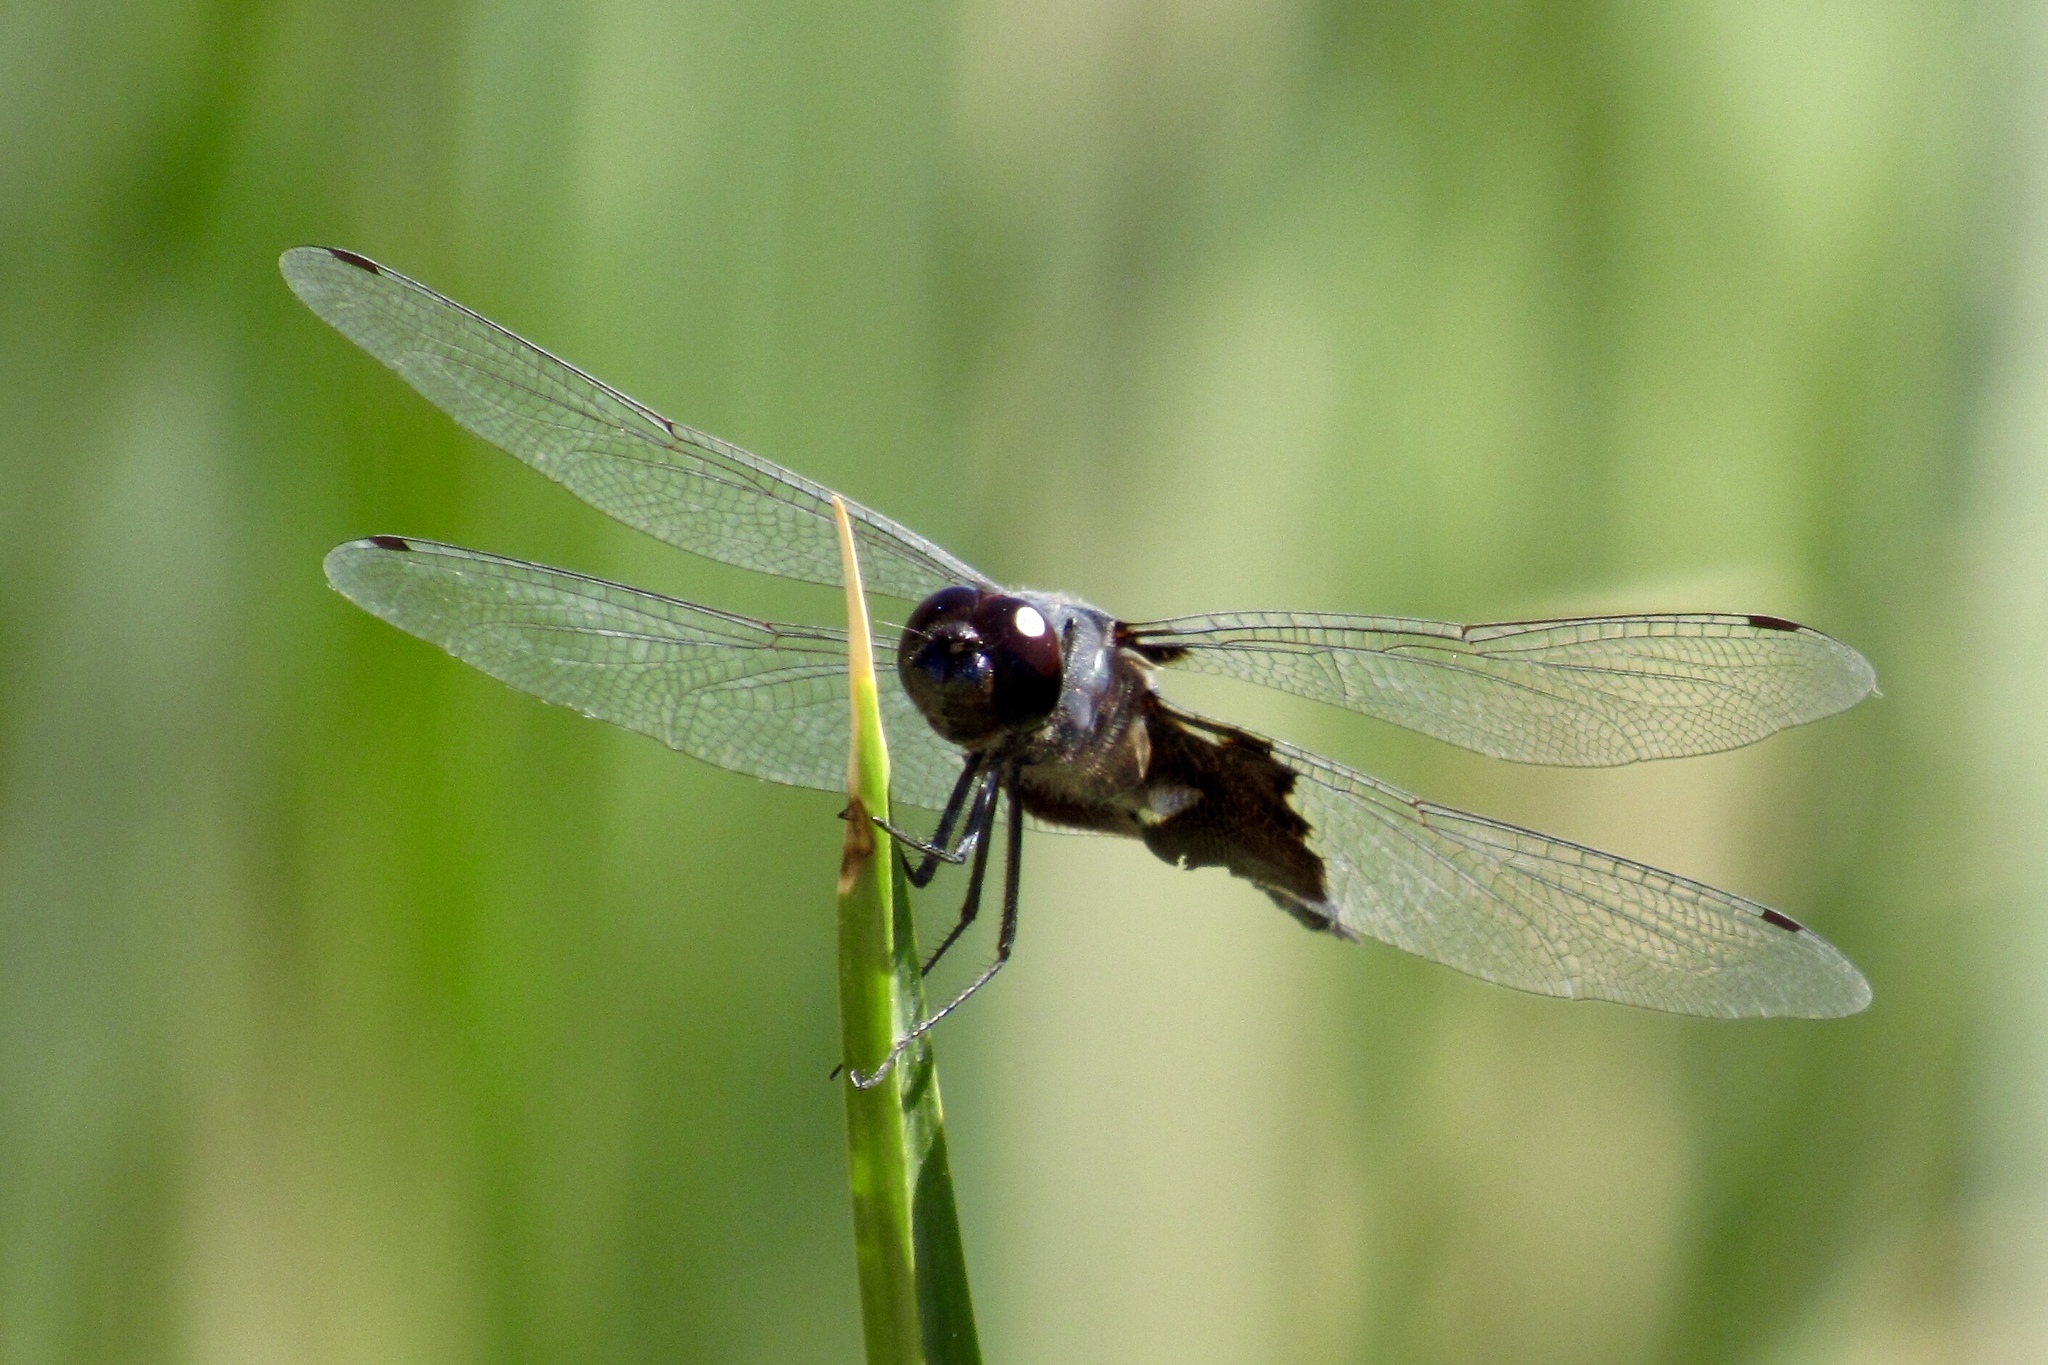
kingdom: Animalia
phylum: Arthropoda
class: Insecta
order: Odonata
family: Libellulidae
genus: Tramea
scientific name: Tramea lacerata
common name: Black saddlebags
